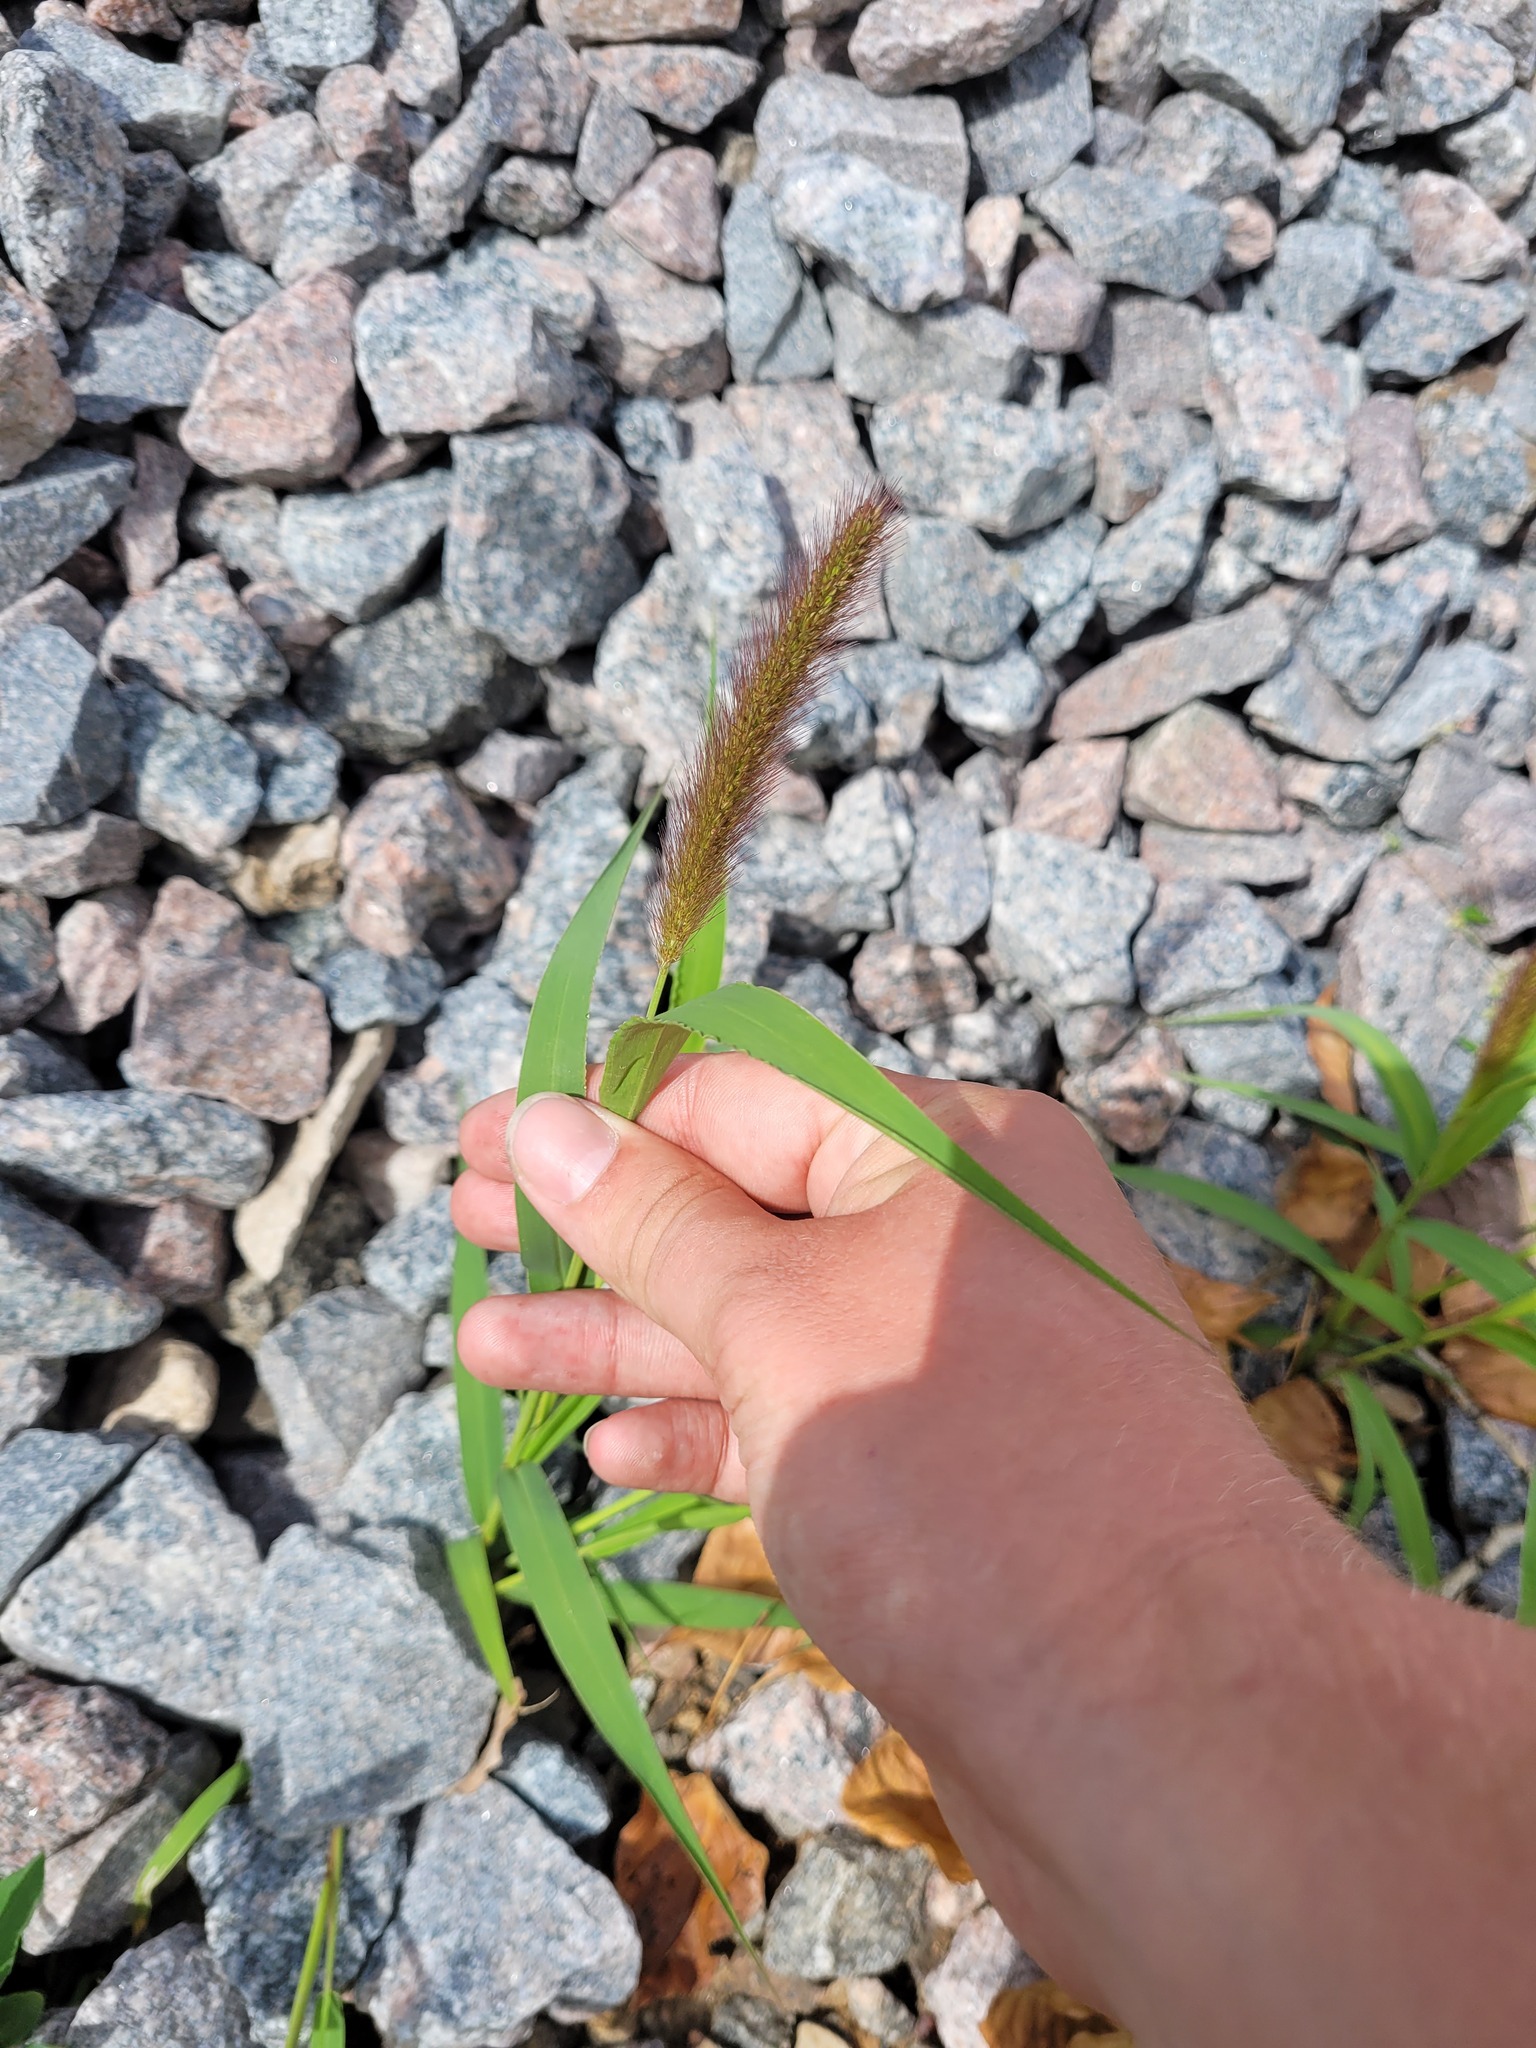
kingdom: Plantae
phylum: Tracheophyta
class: Liliopsida
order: Poales
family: Poaceae
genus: Setaria
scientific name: Setaria viridis
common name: Green bristlegrass
